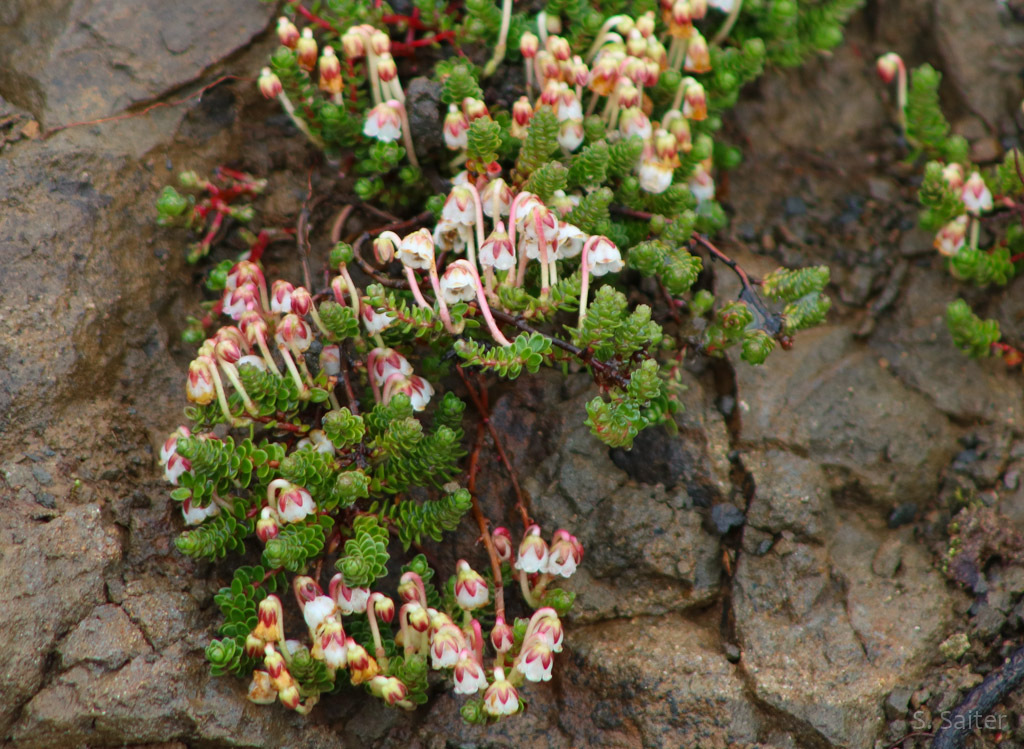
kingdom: Plantae
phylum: Tracheophyta
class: Magnoliopsida
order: Ericales
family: Ericaceae
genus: Gaultheria
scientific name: Gaultheria pumila
